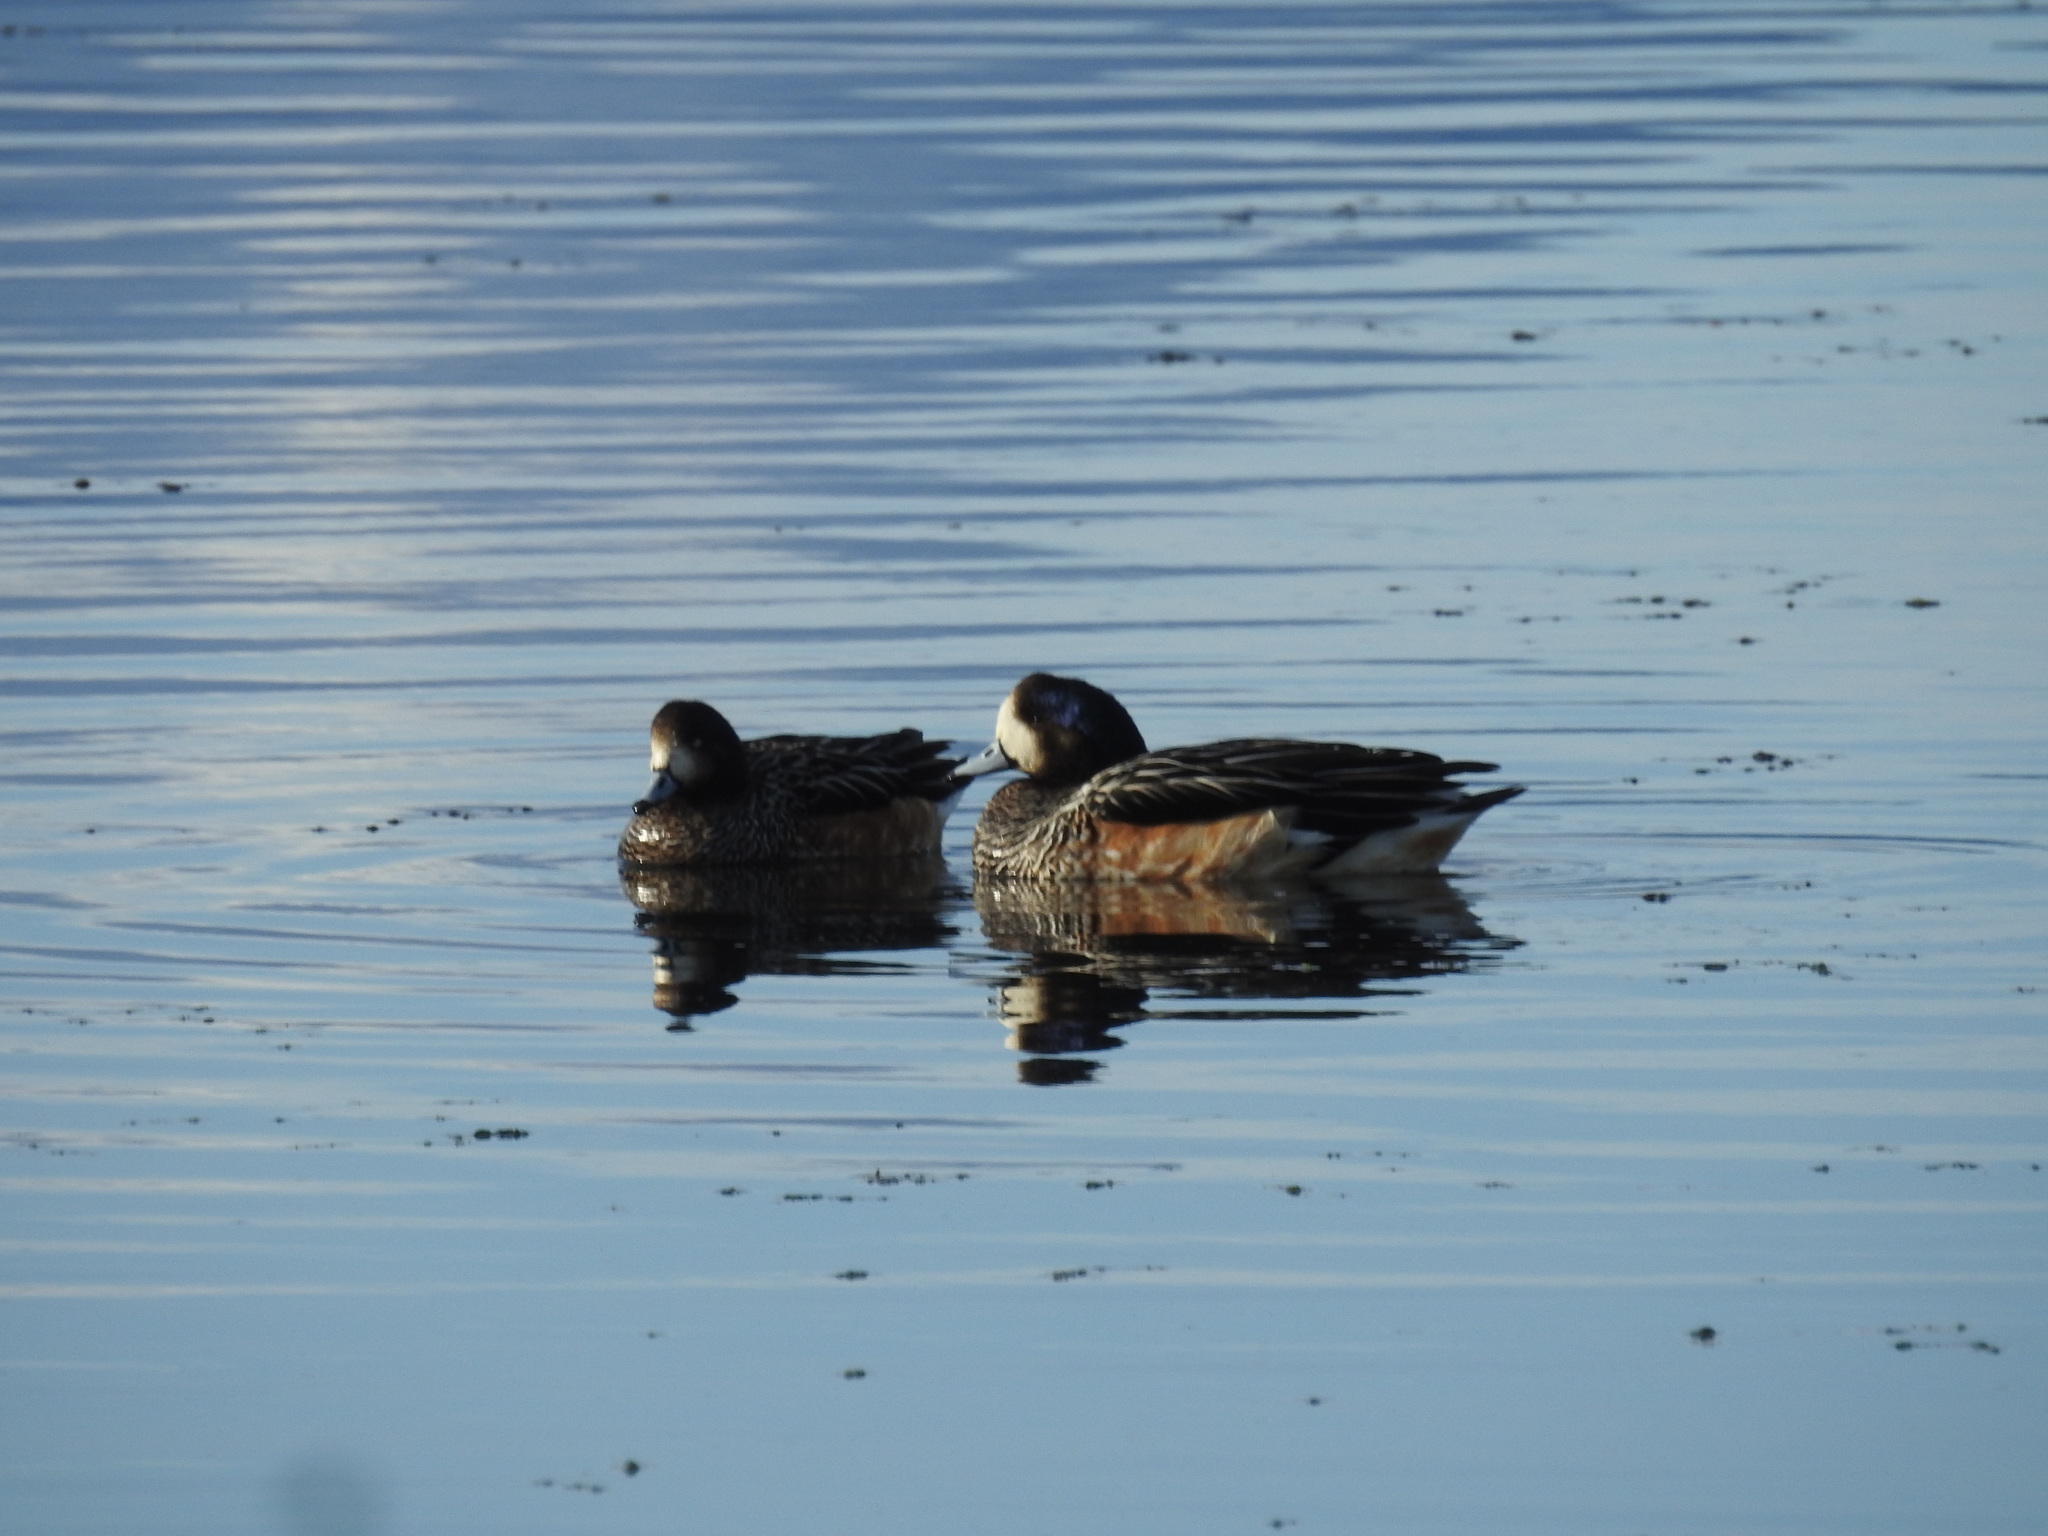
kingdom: Animalia
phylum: Chordata
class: Aves
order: Anseriformes
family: Anatidae
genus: Mareca
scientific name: Mareca sibilatrix
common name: Chiloe wigeon
